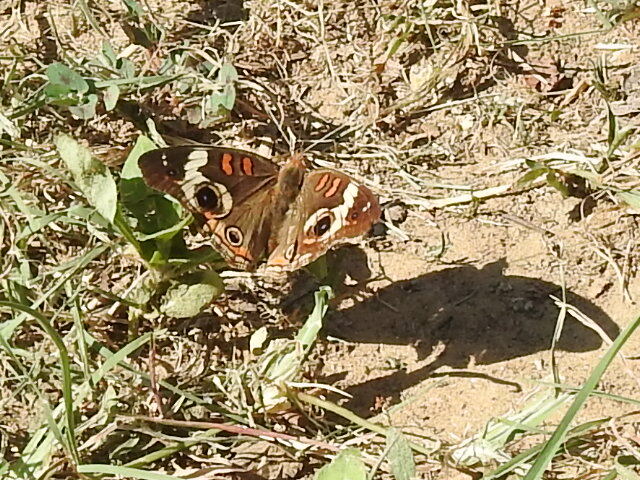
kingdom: Animalia
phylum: Arthropoda
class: Insecta
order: Lepidoptera
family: Nymphalidae
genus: Junonia
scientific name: Junonia coenia
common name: Common buckeye
